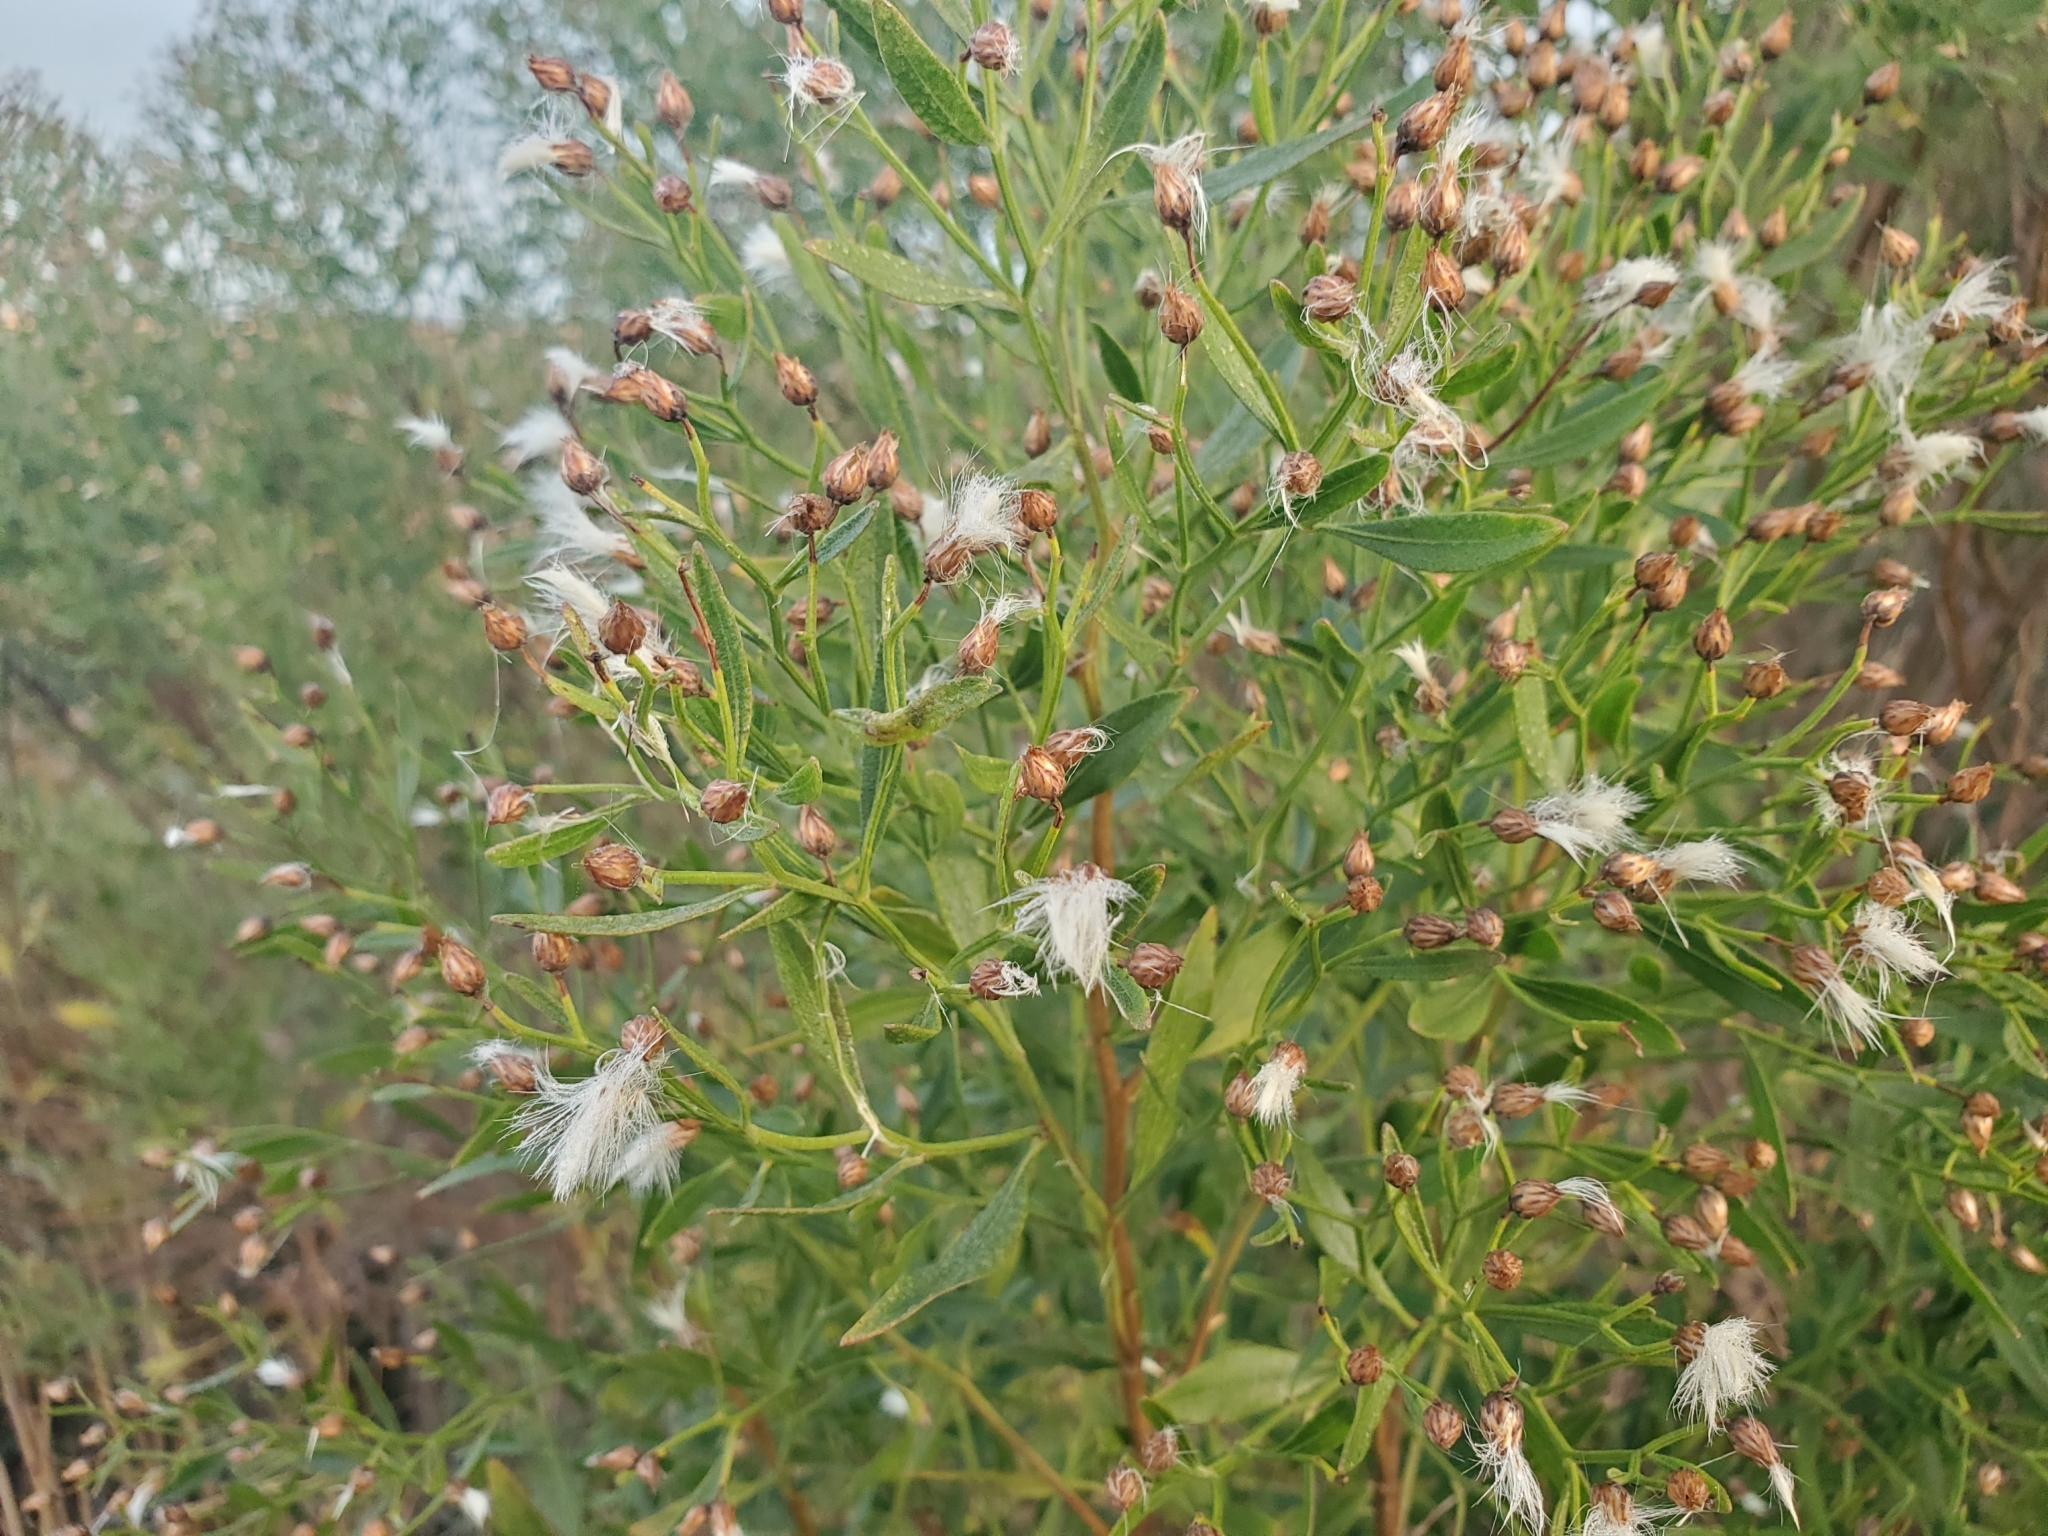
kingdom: Plantae
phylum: Tracheophyta
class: Magnoliopsida
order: Asterales
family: Asteraceae
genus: Baccharis
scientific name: Baccharis halimifolia
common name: Eastern baccharis
